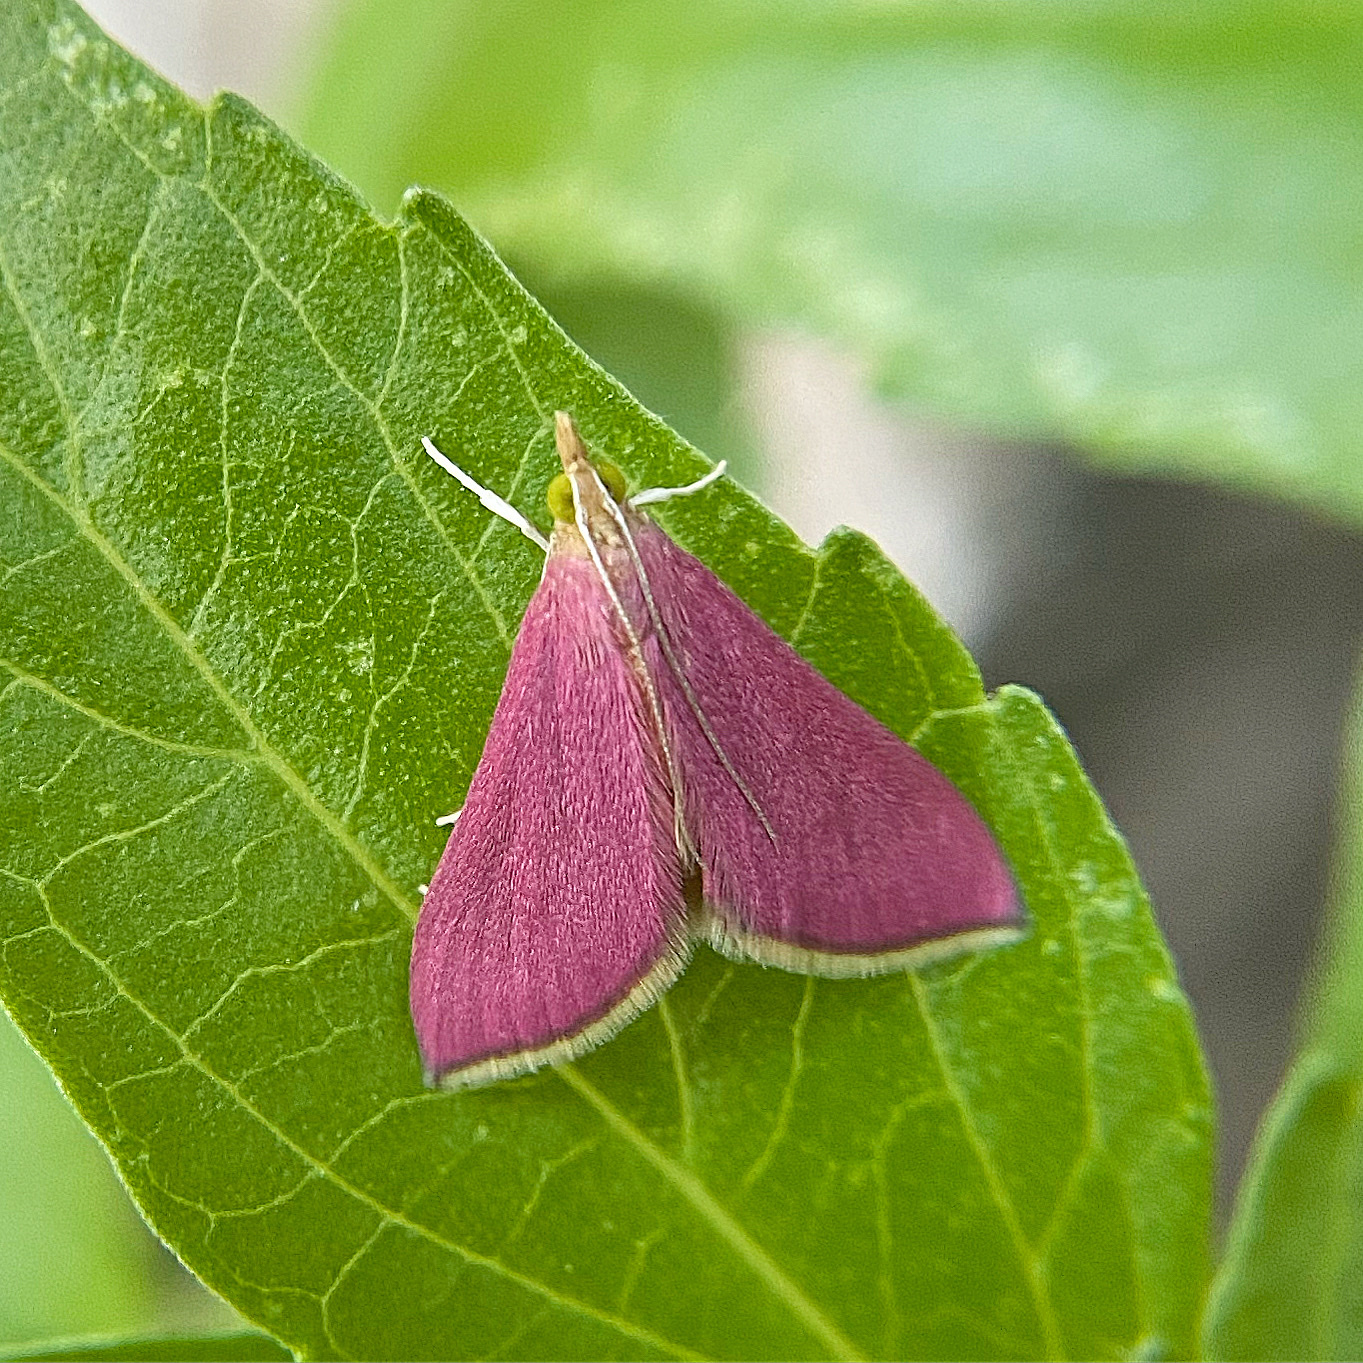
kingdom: Animalia
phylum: Arthropoda
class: Insecta
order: Lepidoptera
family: Crambidae
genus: Pyrausta
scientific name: Pyrausta inornatalis
